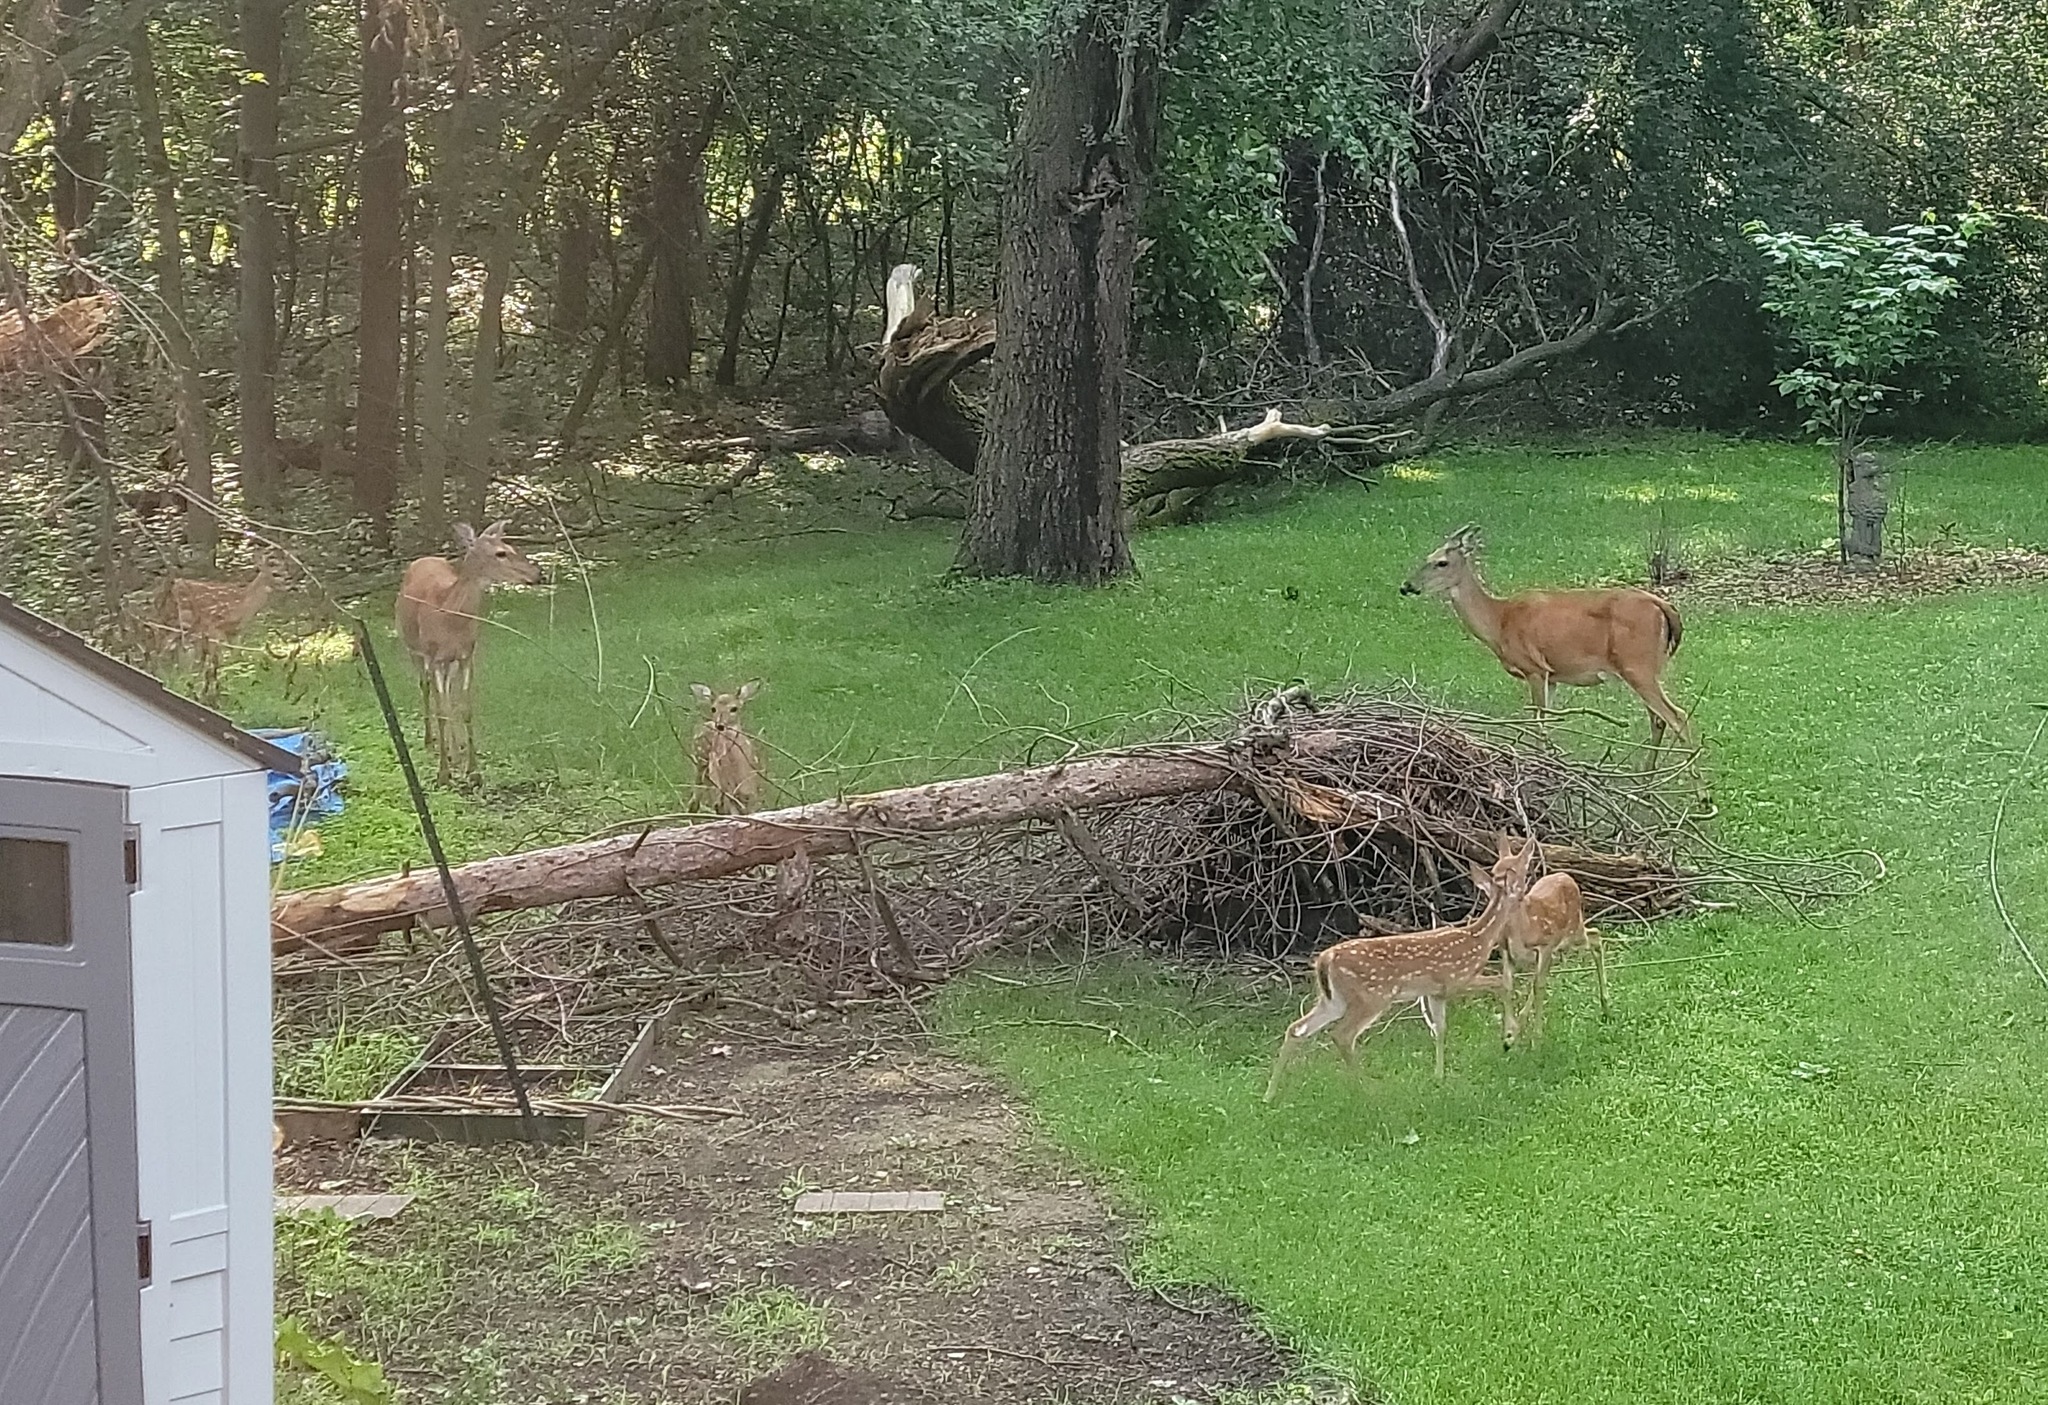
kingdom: Animalia
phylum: Chordata
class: Mammalia
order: Artiodactyla
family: Cervidae
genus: Odocoileus
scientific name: Odocoileus virginianus
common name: White-tailed deer
